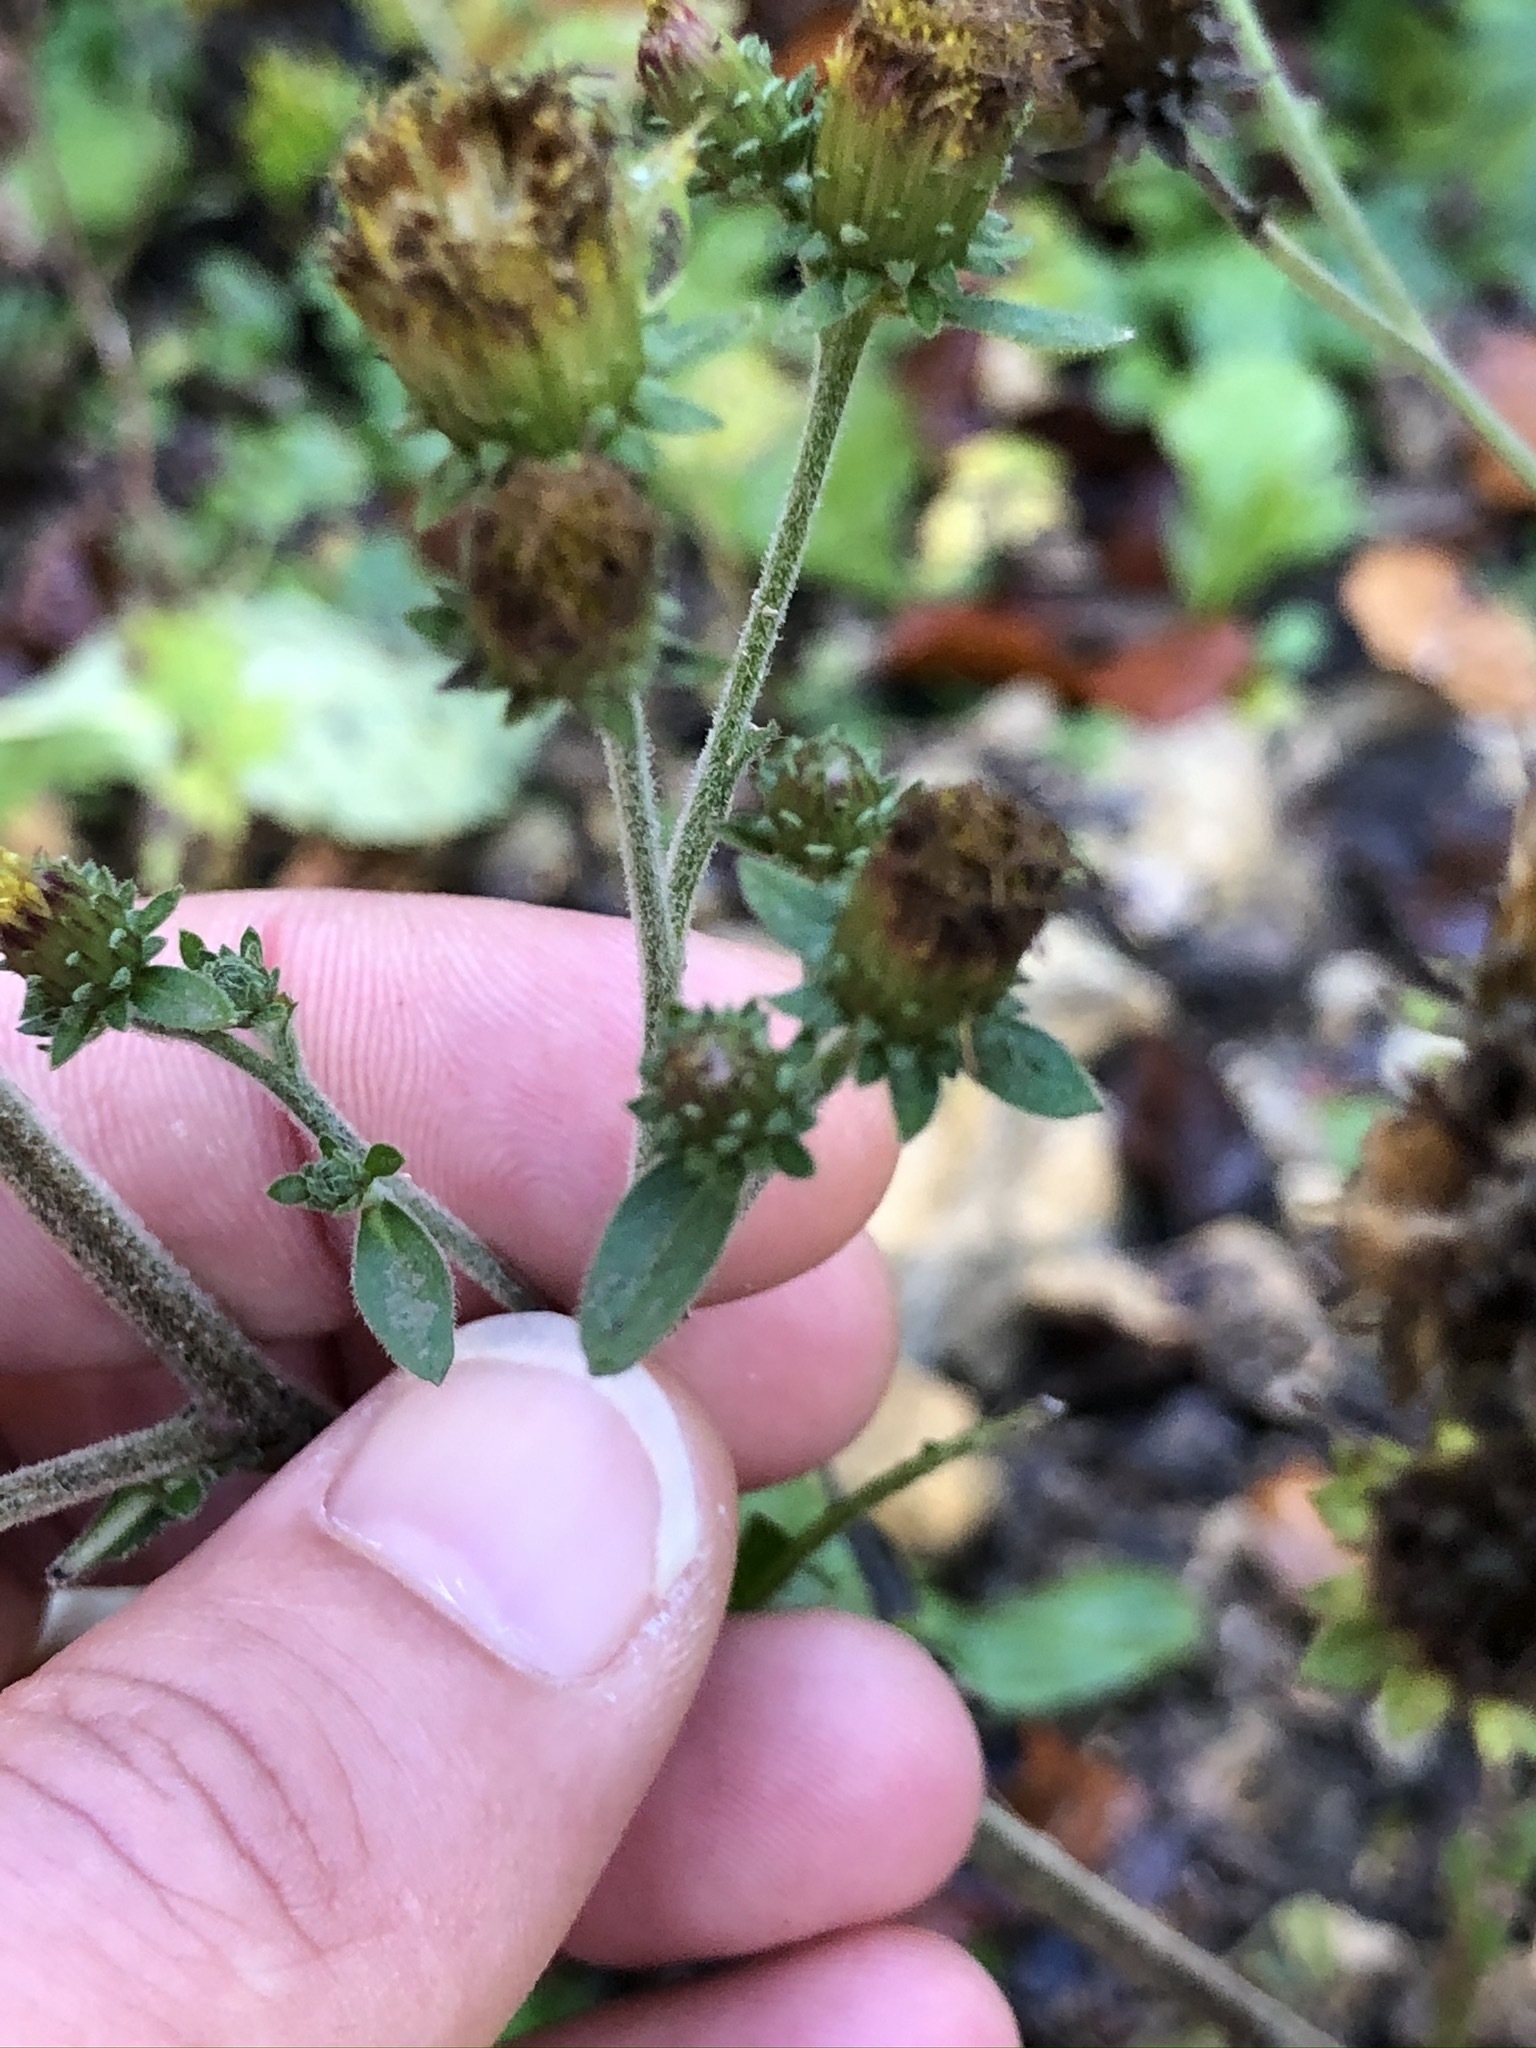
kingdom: Plantae
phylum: Tracheophyta
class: Magnoliopsida
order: Asterales
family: Asteraceae
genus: Pentanema
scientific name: Pentanema squarrosum
